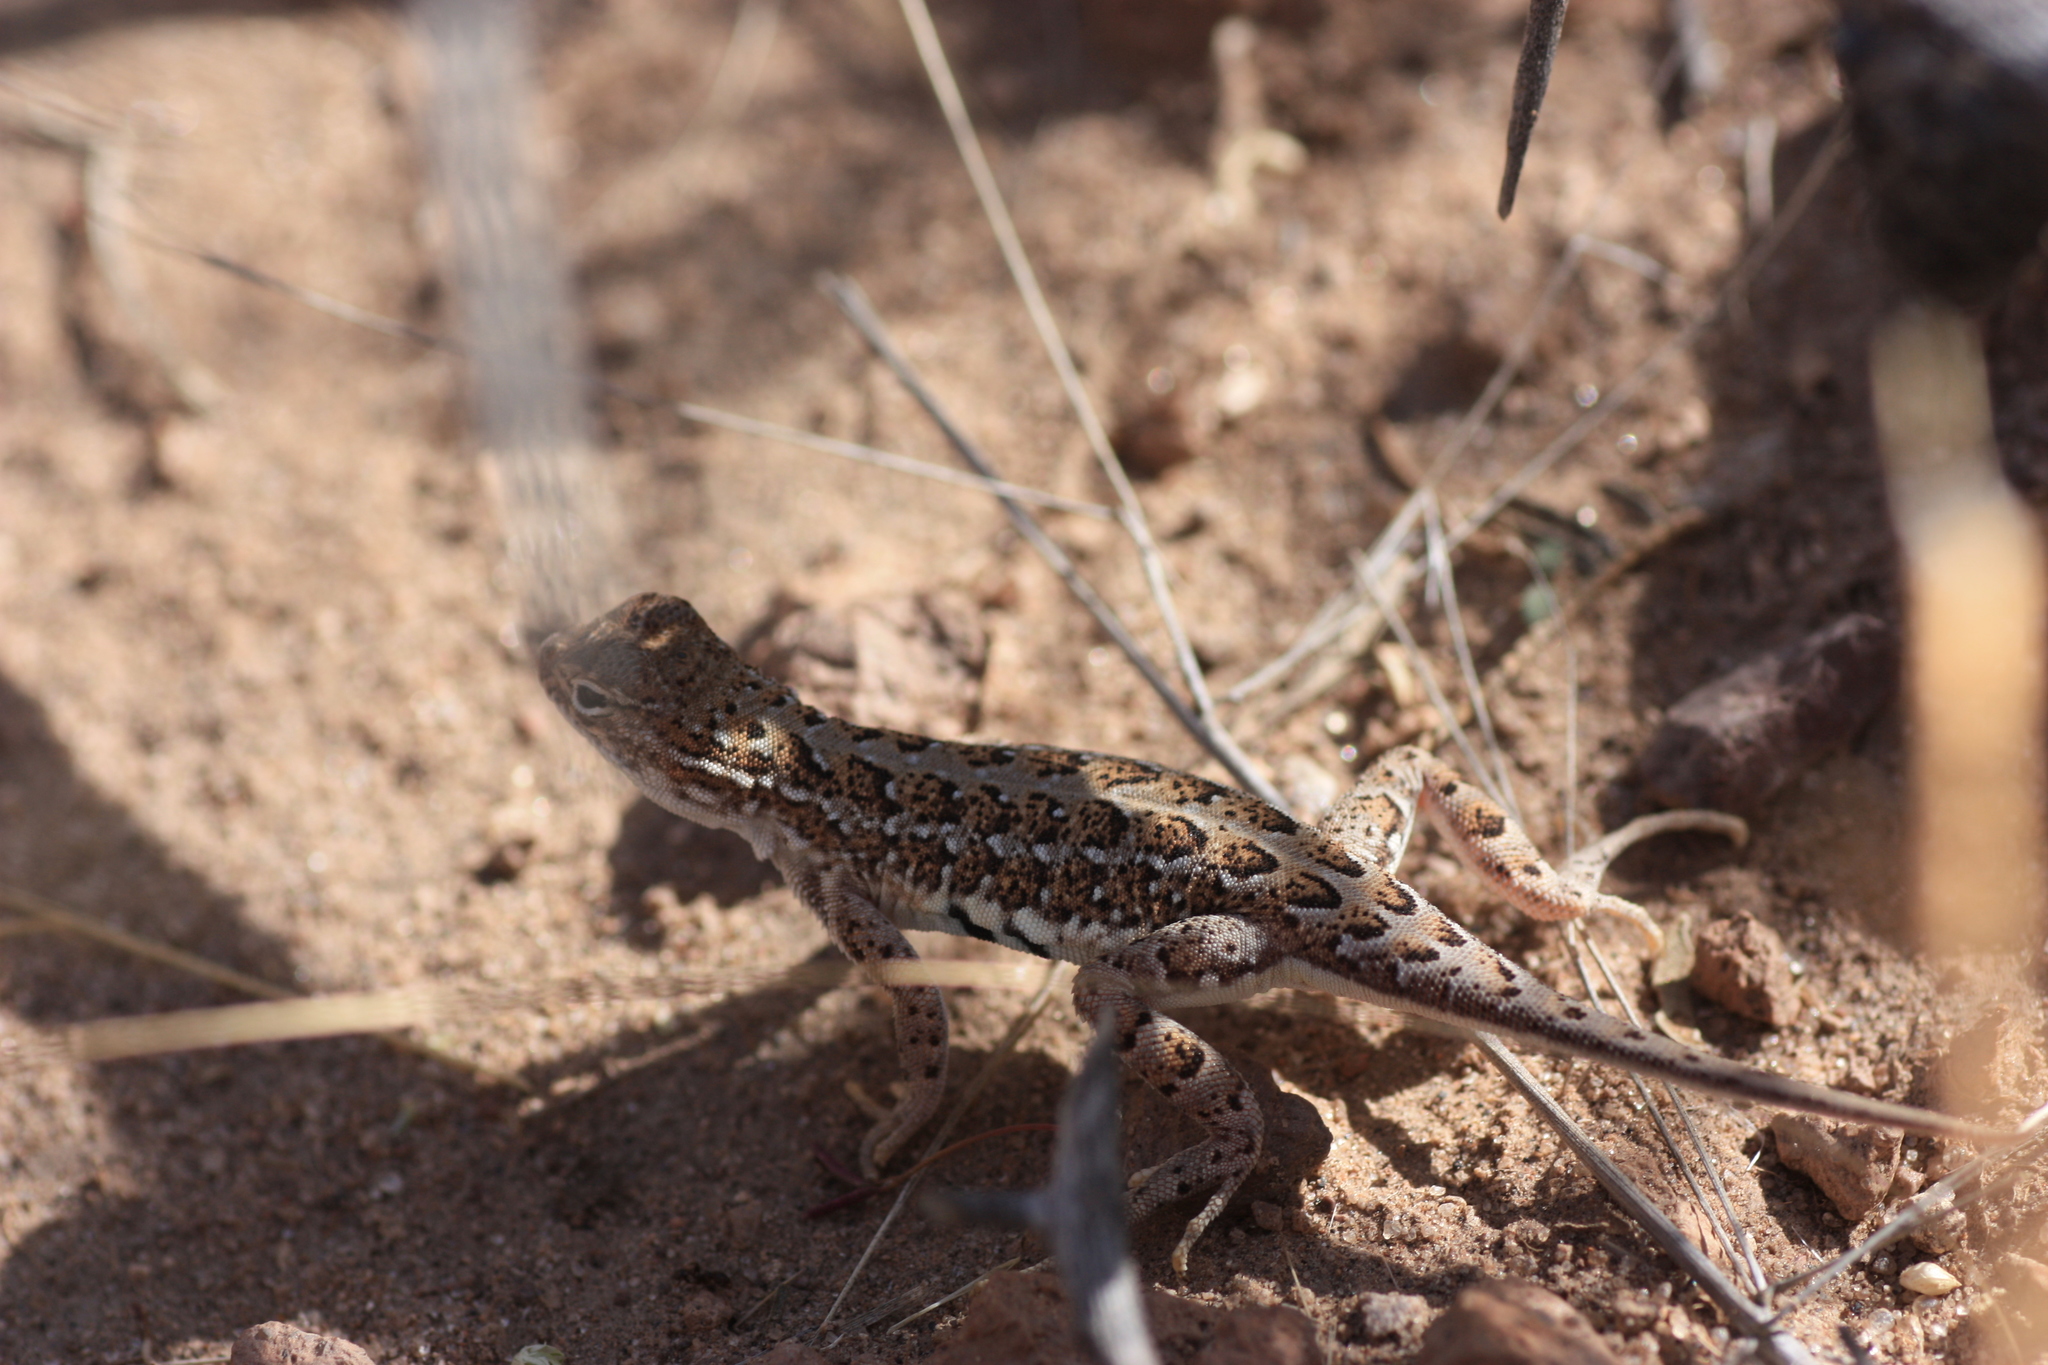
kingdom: Animalia
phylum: Chordata
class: Squamata
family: Phrynosomatidae
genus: Holbrookia
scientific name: Holbrookia maculata
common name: Lesser earless lizard
